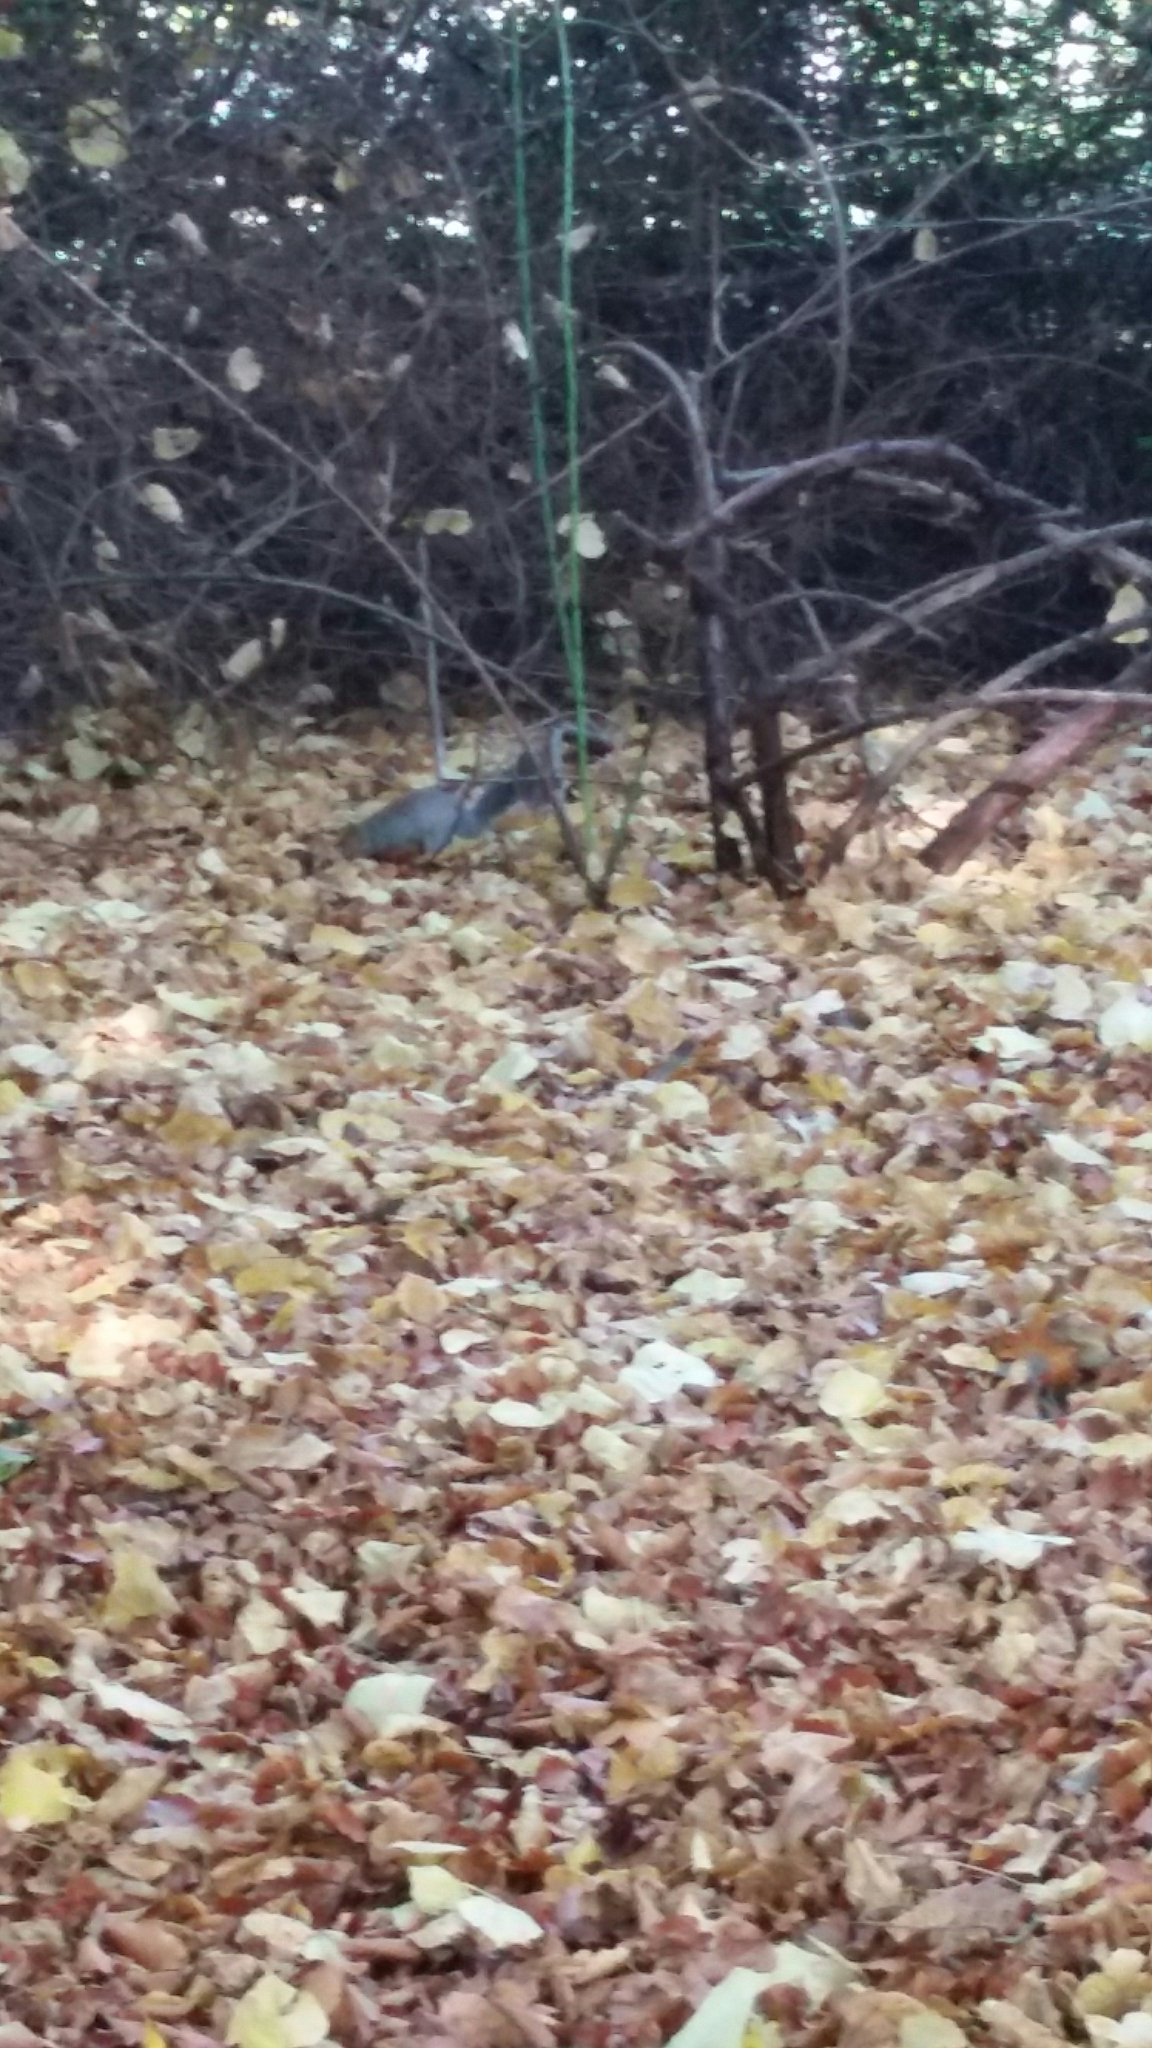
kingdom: Animalia
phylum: Chordata
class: Mammalia
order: Rodentia
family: Sciuridae
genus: Sciurus
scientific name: Sciurus carolinensis
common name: Eastern gray squirrel
